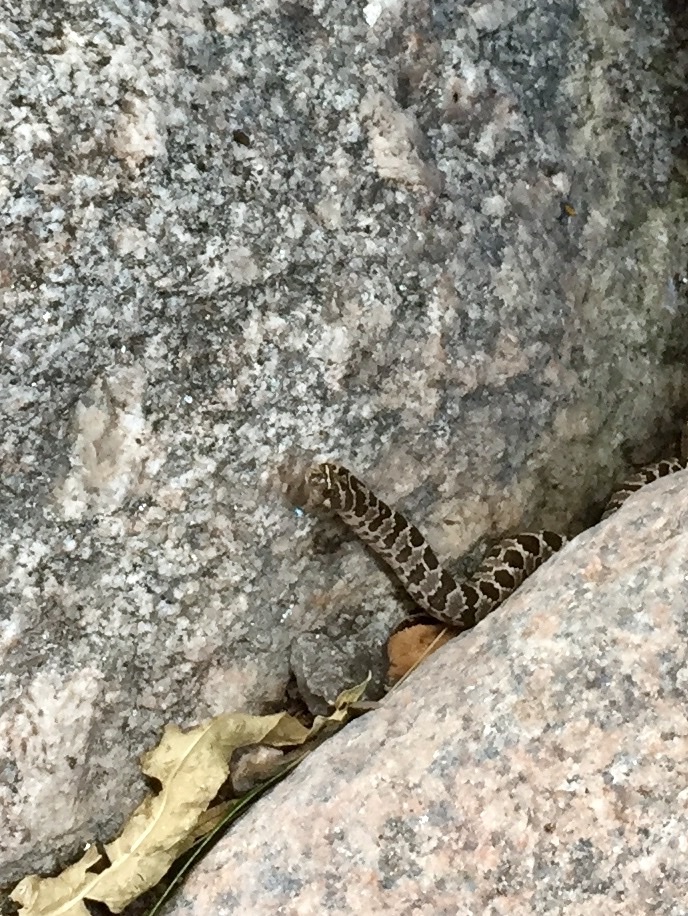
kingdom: Animalia
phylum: Chordata
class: Squamata
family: Colubridae
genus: Xenodon
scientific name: Xenodon dorbignyi
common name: South american hognose snake
